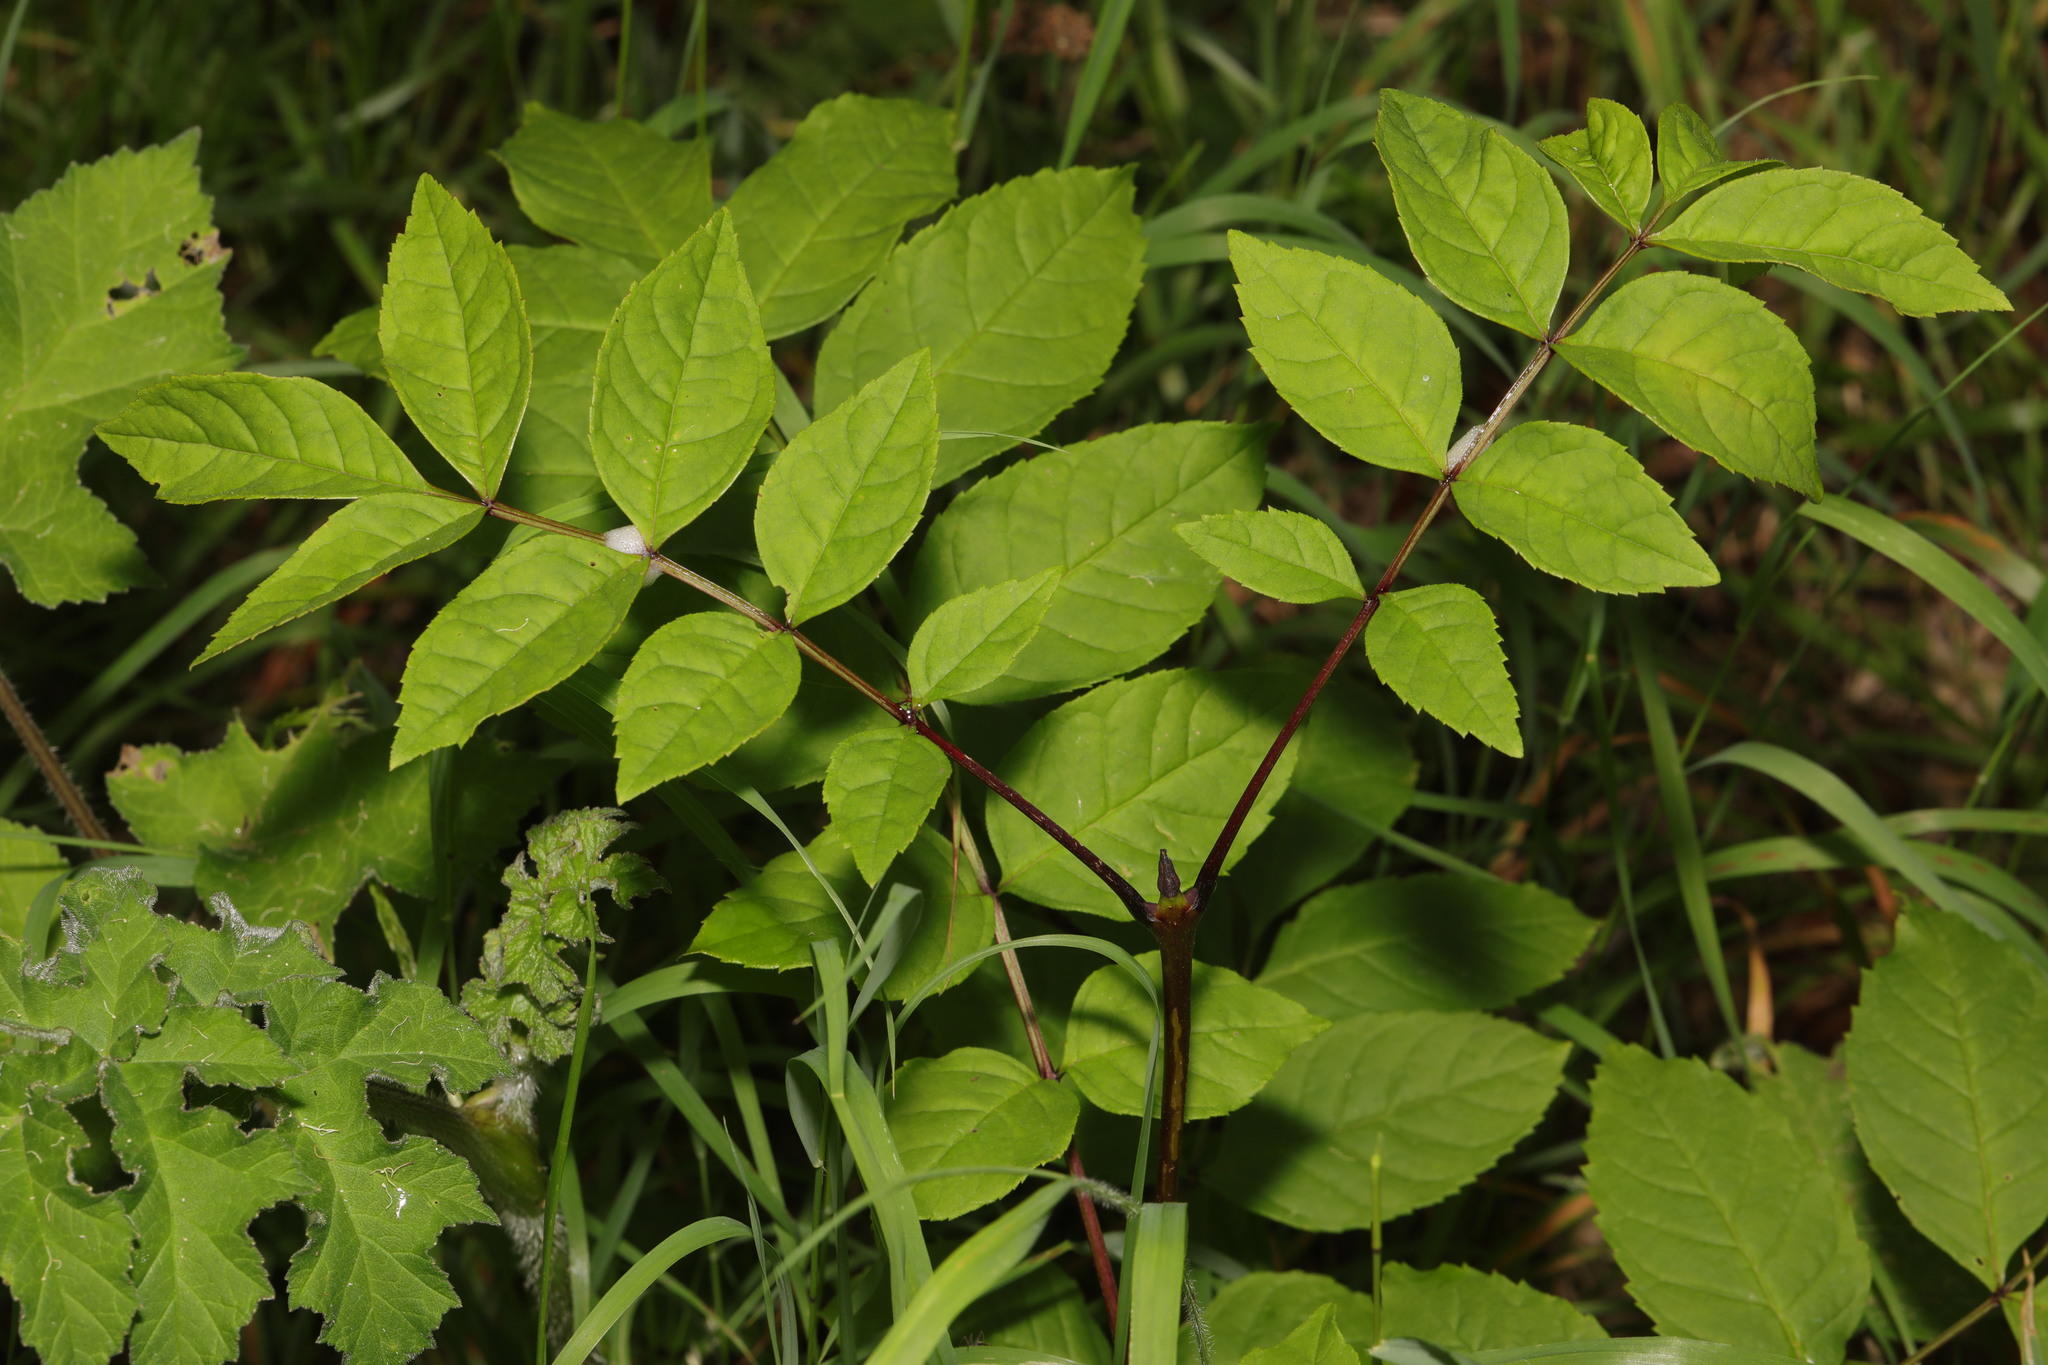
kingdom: Plantae
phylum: Tracheophyta
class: Magnoliopsida
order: Lamiales
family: Oleaceae
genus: Fraxinus
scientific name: Fraxinus excelsior
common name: European ash
